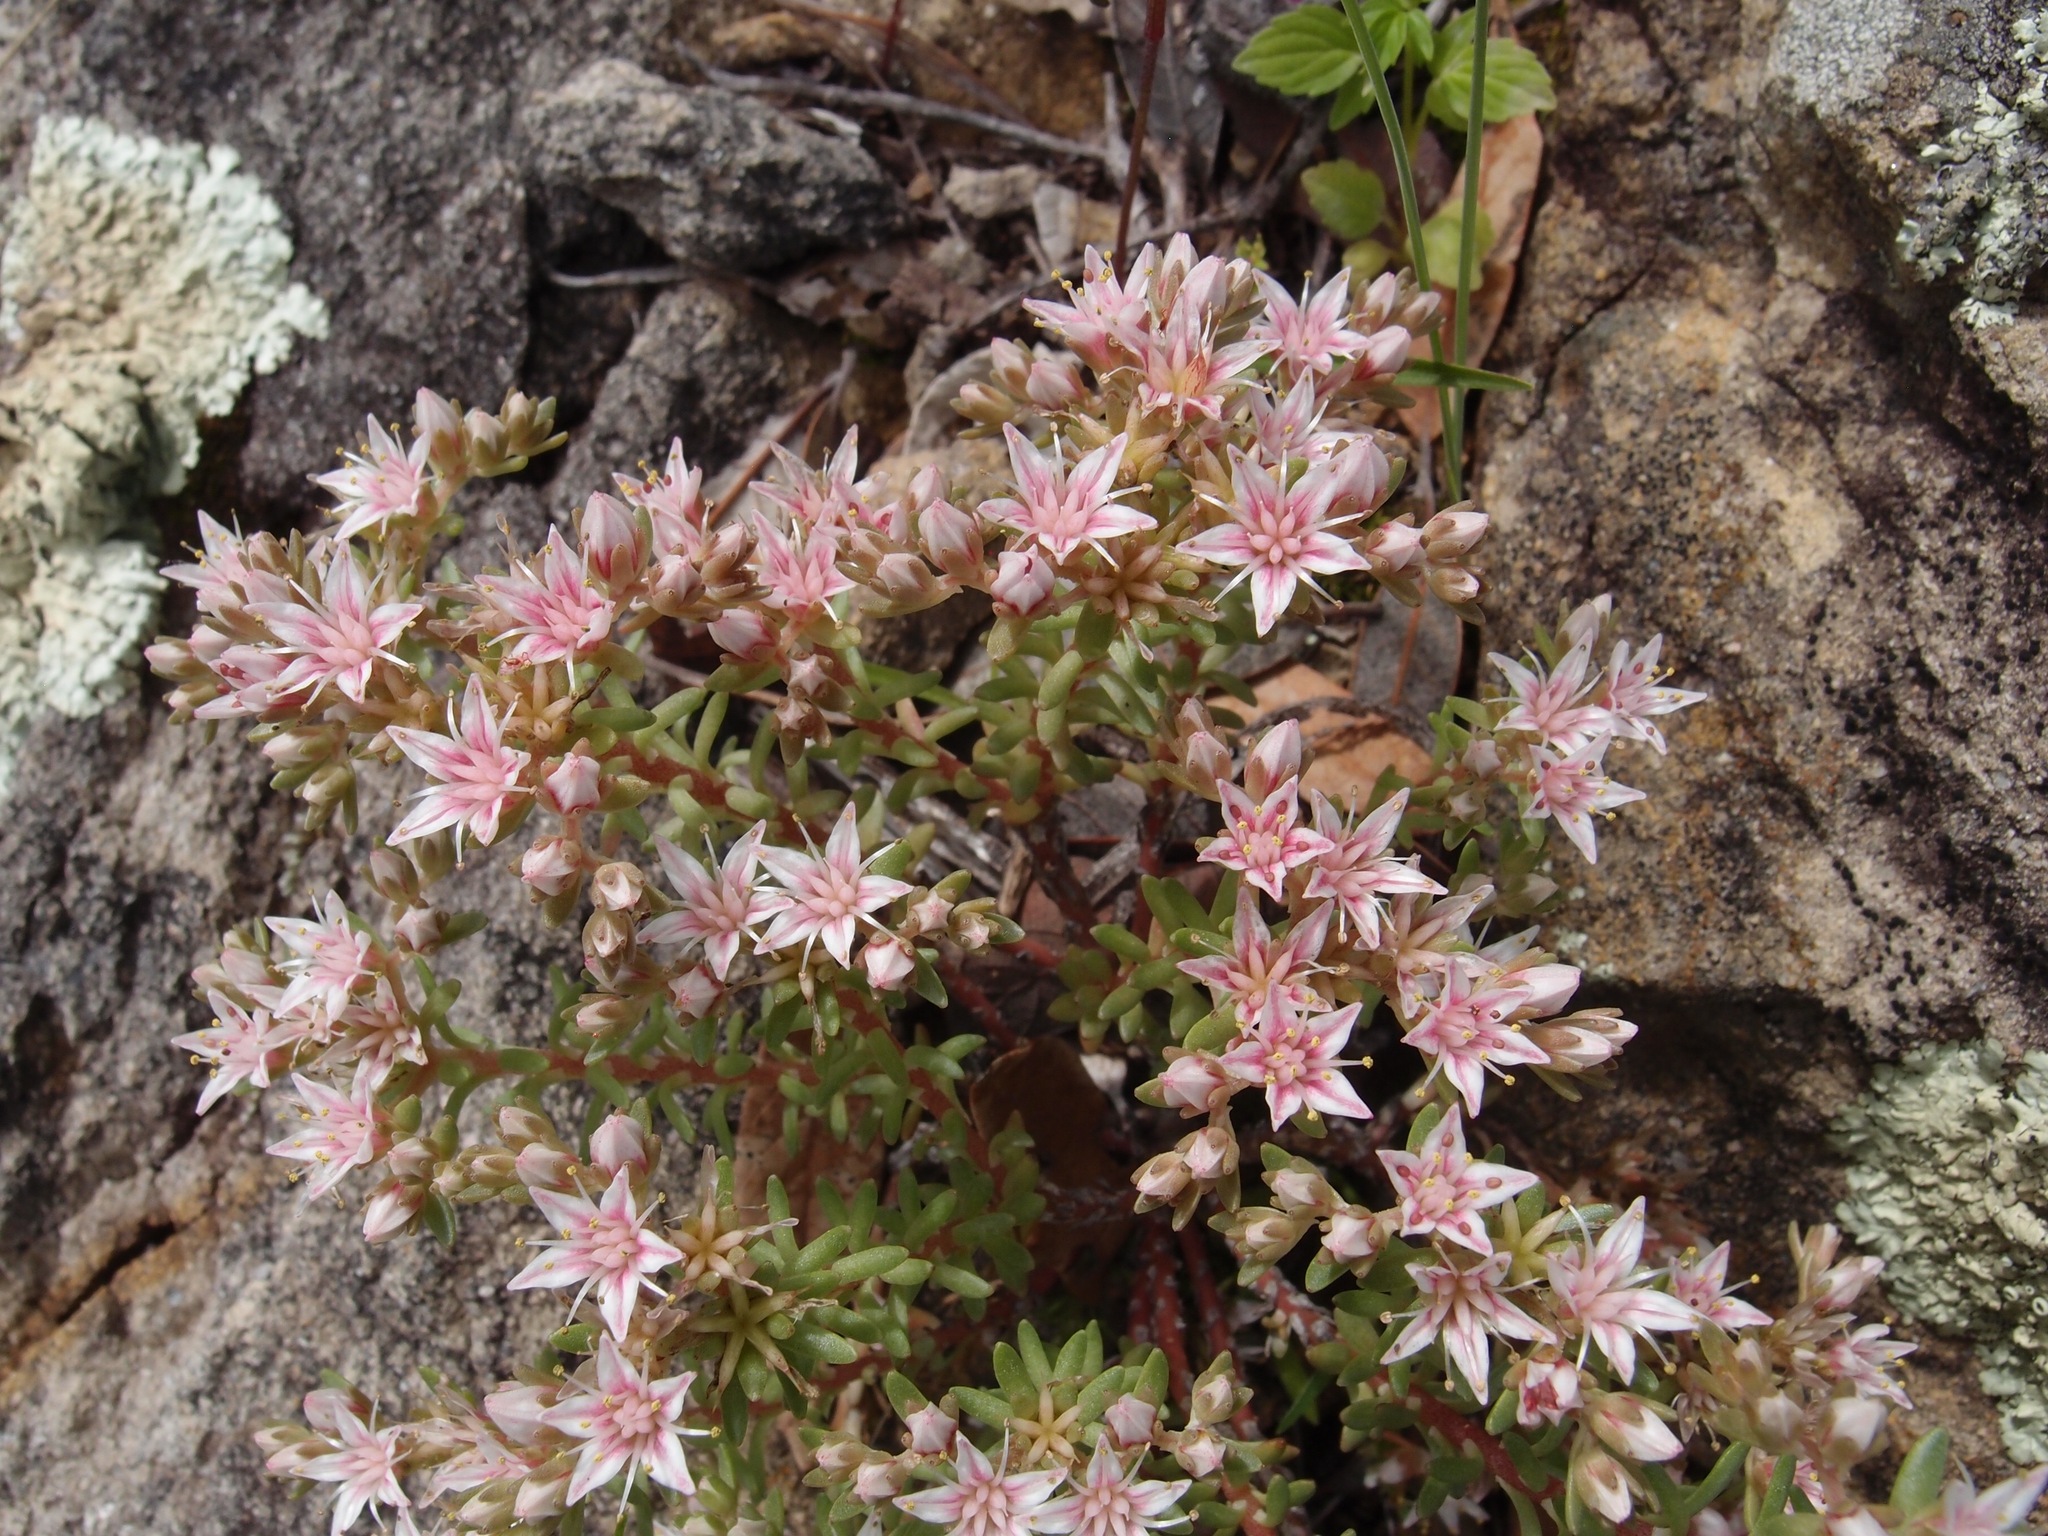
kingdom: Plantae
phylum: Tracheophyta
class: Magnoliopsida
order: Saxifragales
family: Crassulaceae
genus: Sedum
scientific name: Sedum stelliforme
